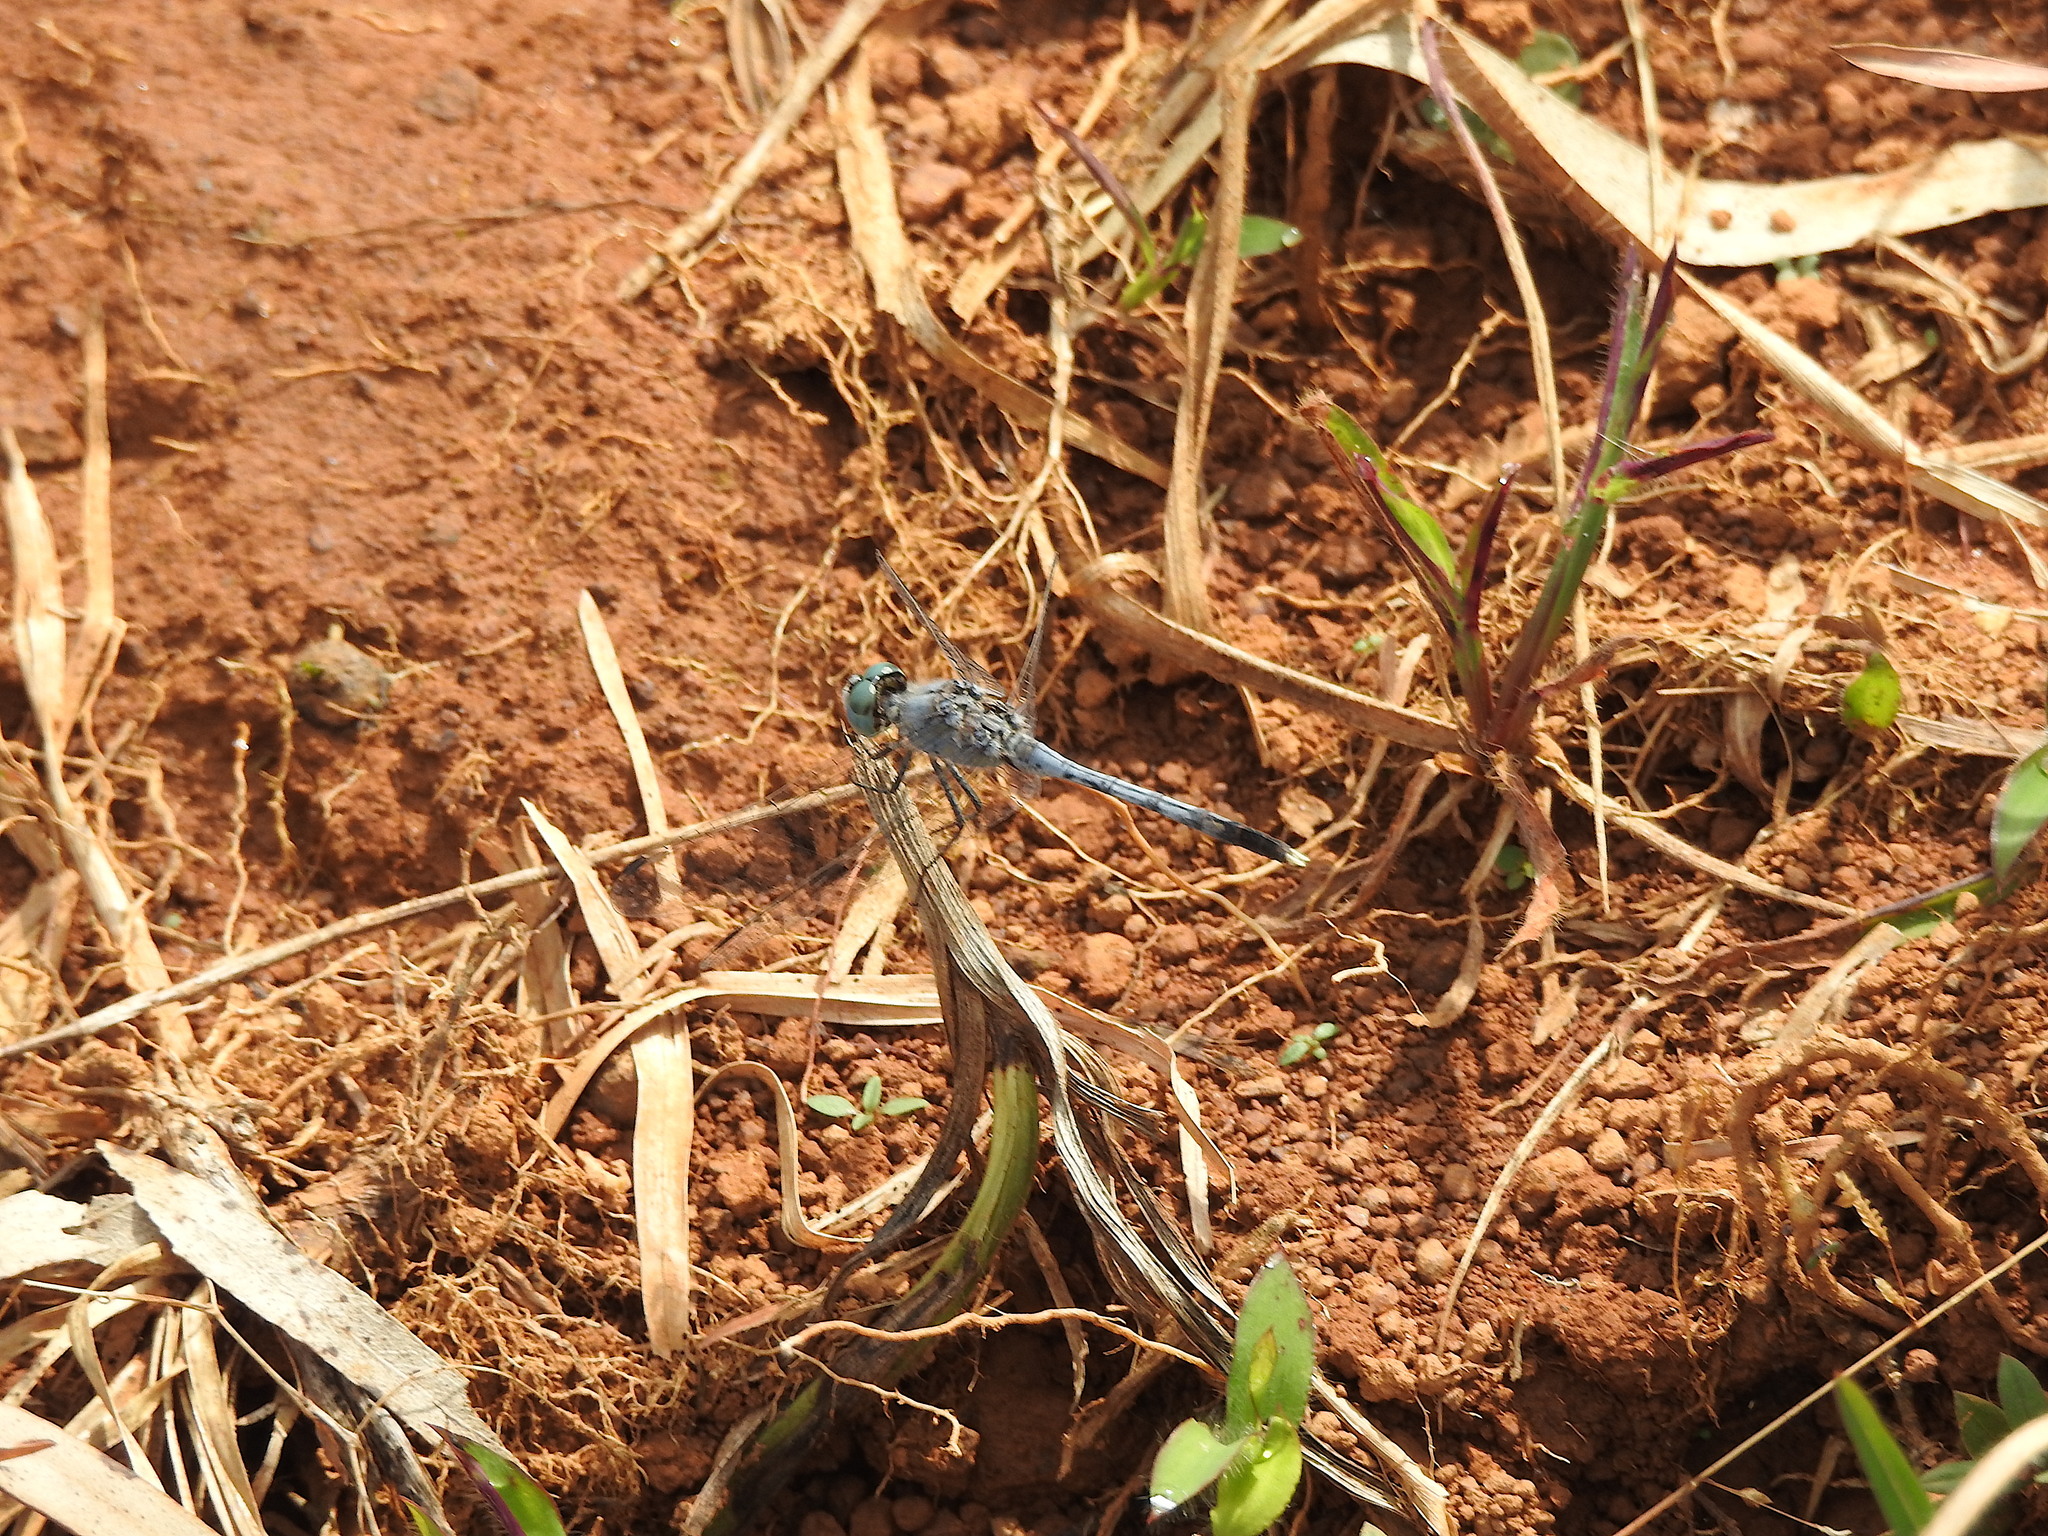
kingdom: Animalia
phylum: Arthropoda
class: Insecta
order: Odonata
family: Libellulidae
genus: Diplacodes
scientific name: Diplacodes trivialis
